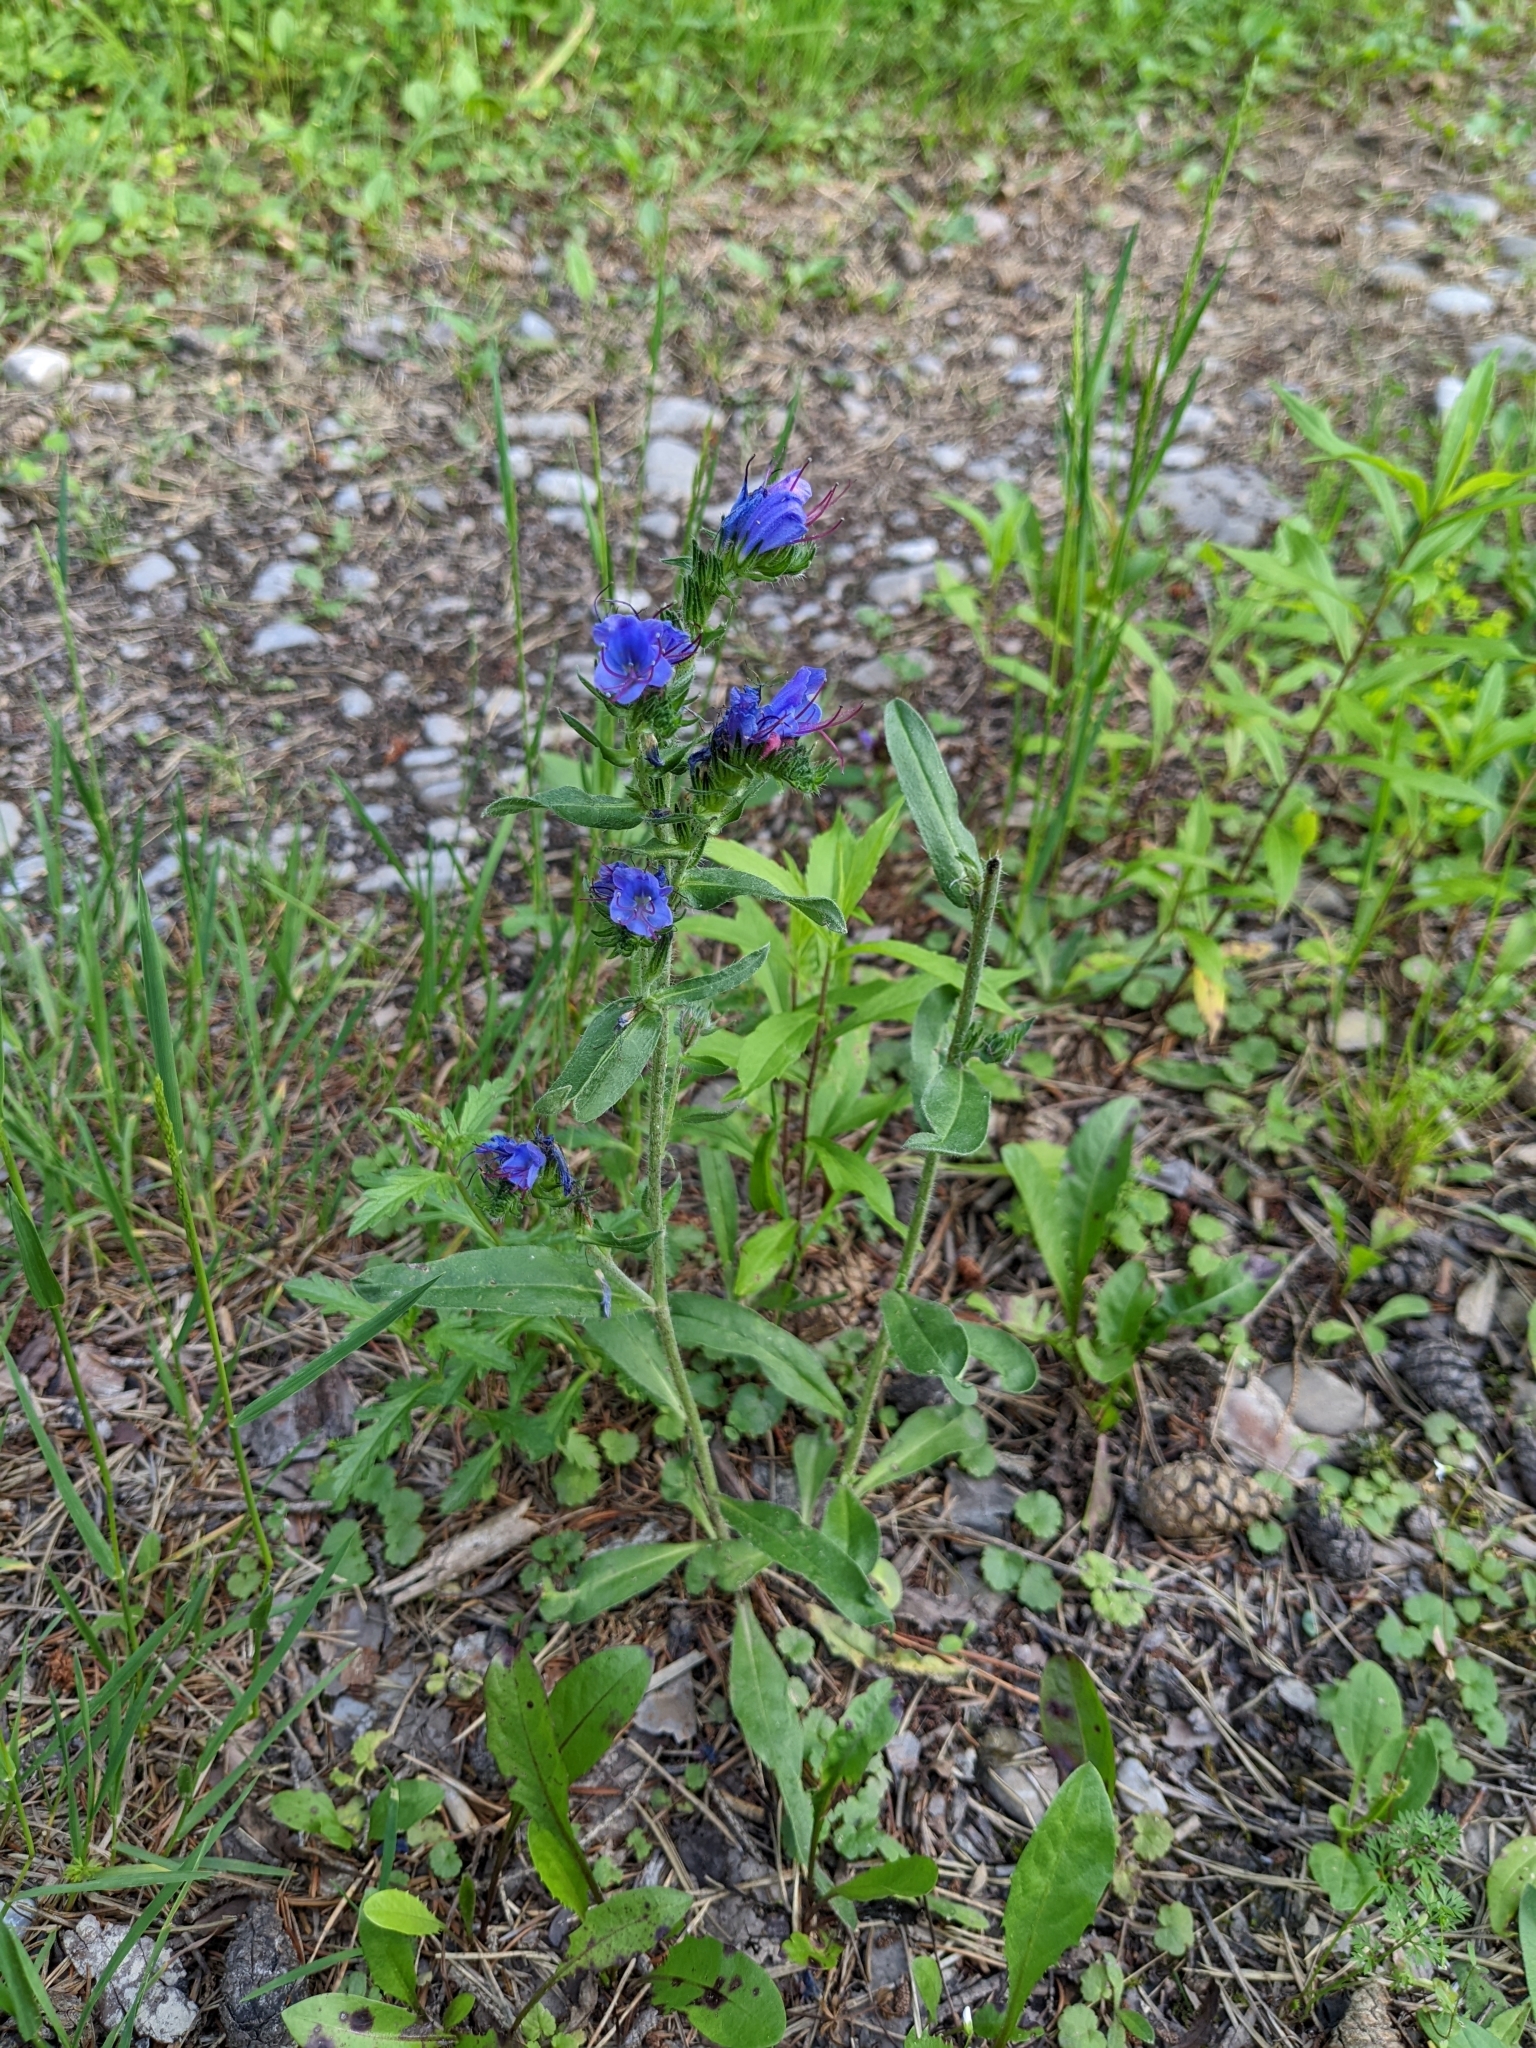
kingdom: Plantae
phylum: Tracheophyta
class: Magnoliopsida
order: Boraginales
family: Boraginaceae
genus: Echium
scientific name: Echium vulgare
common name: Common viper's bugloss
